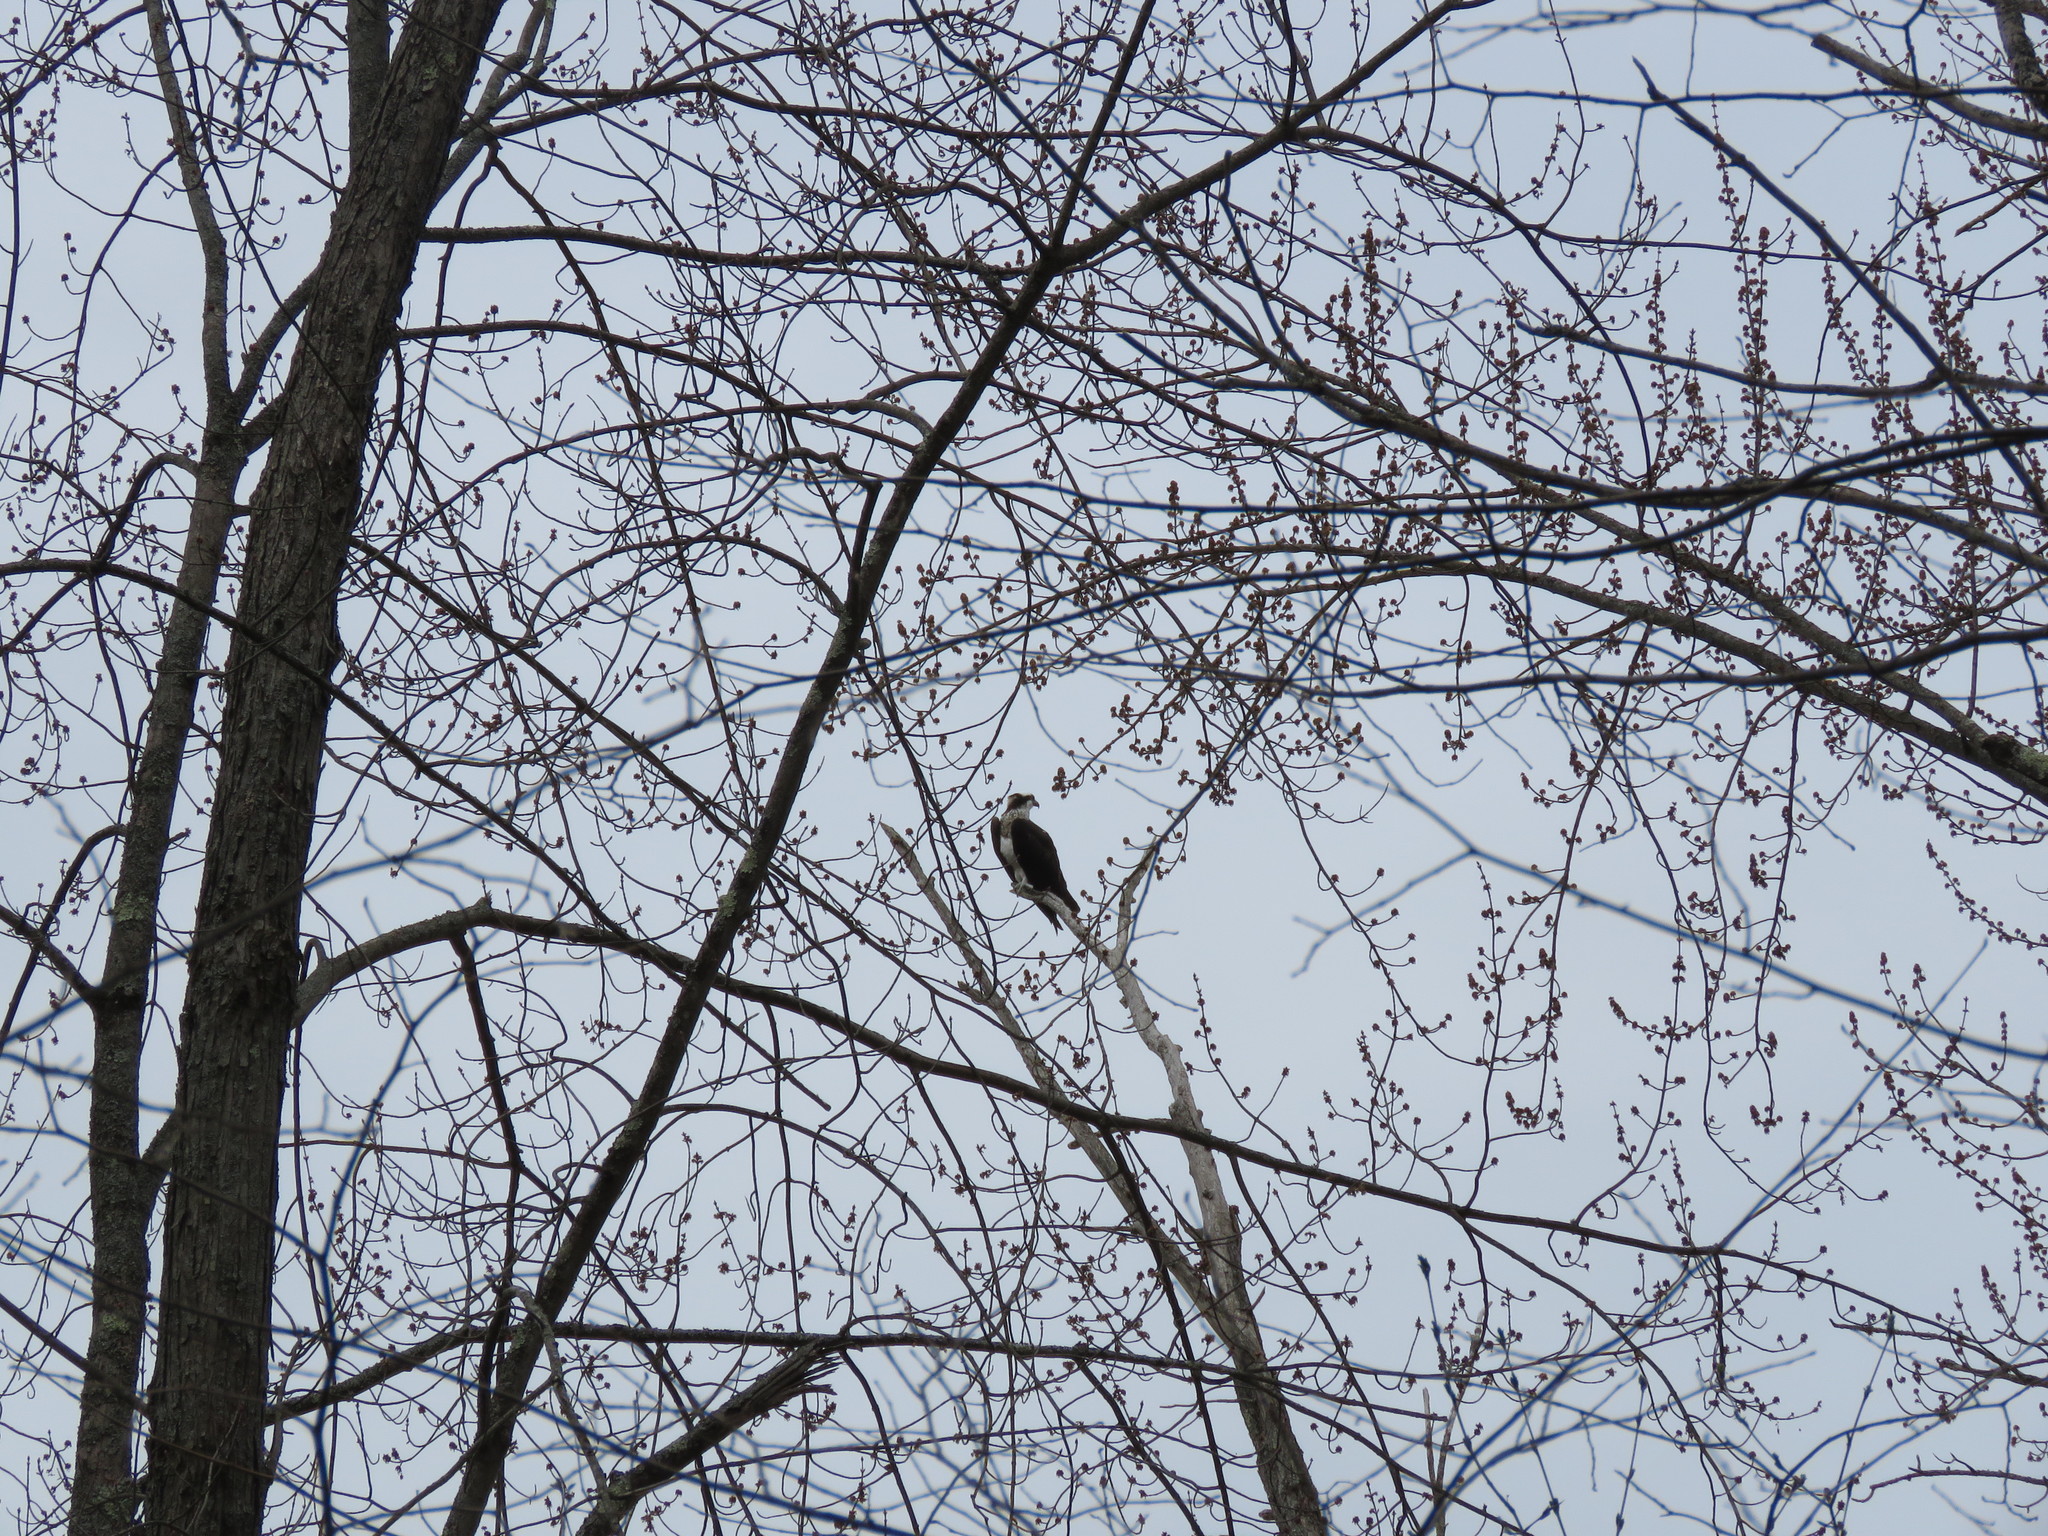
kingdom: Animalia
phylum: Chordata
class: Aves
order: Accipitriformes
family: Pandionidae
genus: Pandion
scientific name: Pandion haliaetus
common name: Osprey
